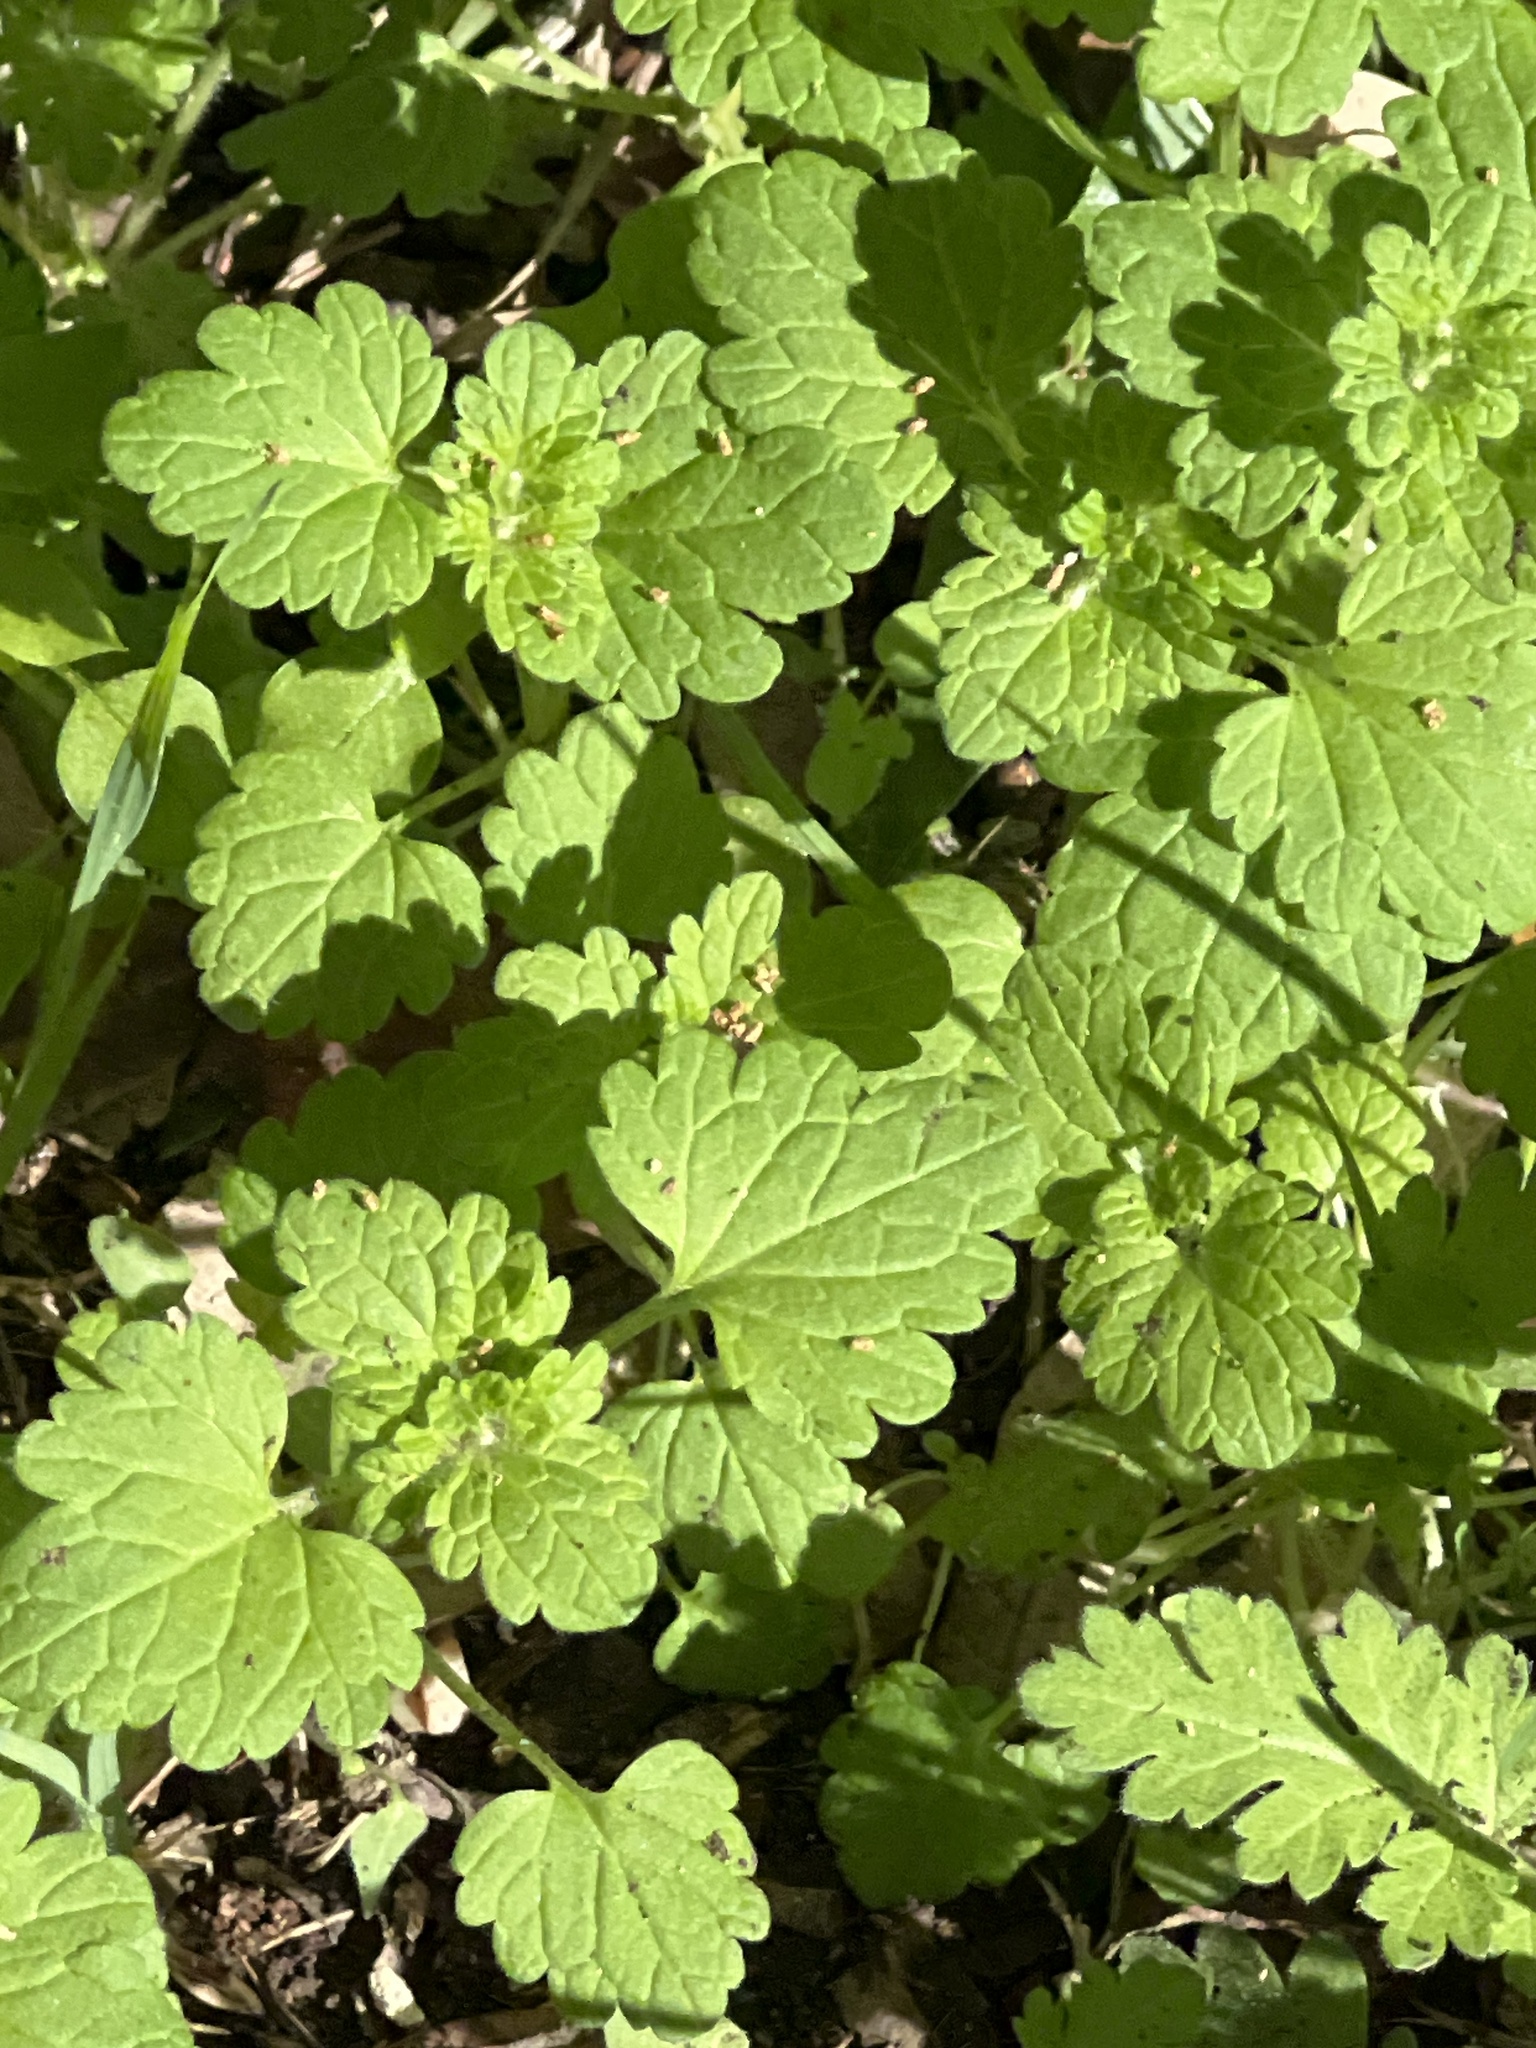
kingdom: Plantae
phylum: Tracheophyta
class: Magnoliopsida
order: Lamiales
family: Lamiaceae
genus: Lamium
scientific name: Lamium amplexicaule
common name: Henbit dead-nettle
